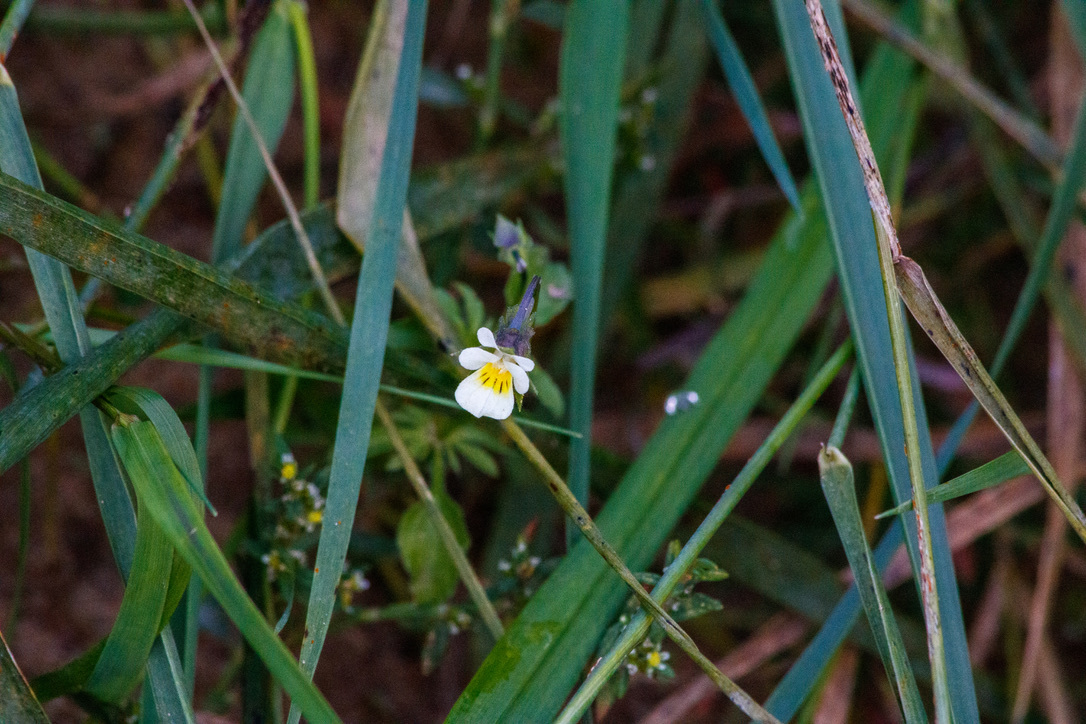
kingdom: Plantae
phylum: Tracheophyta
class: Magnoliopsida
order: Malpighiales
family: Violaceae
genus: Viola
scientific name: Viola arvensis
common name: Field pansy
